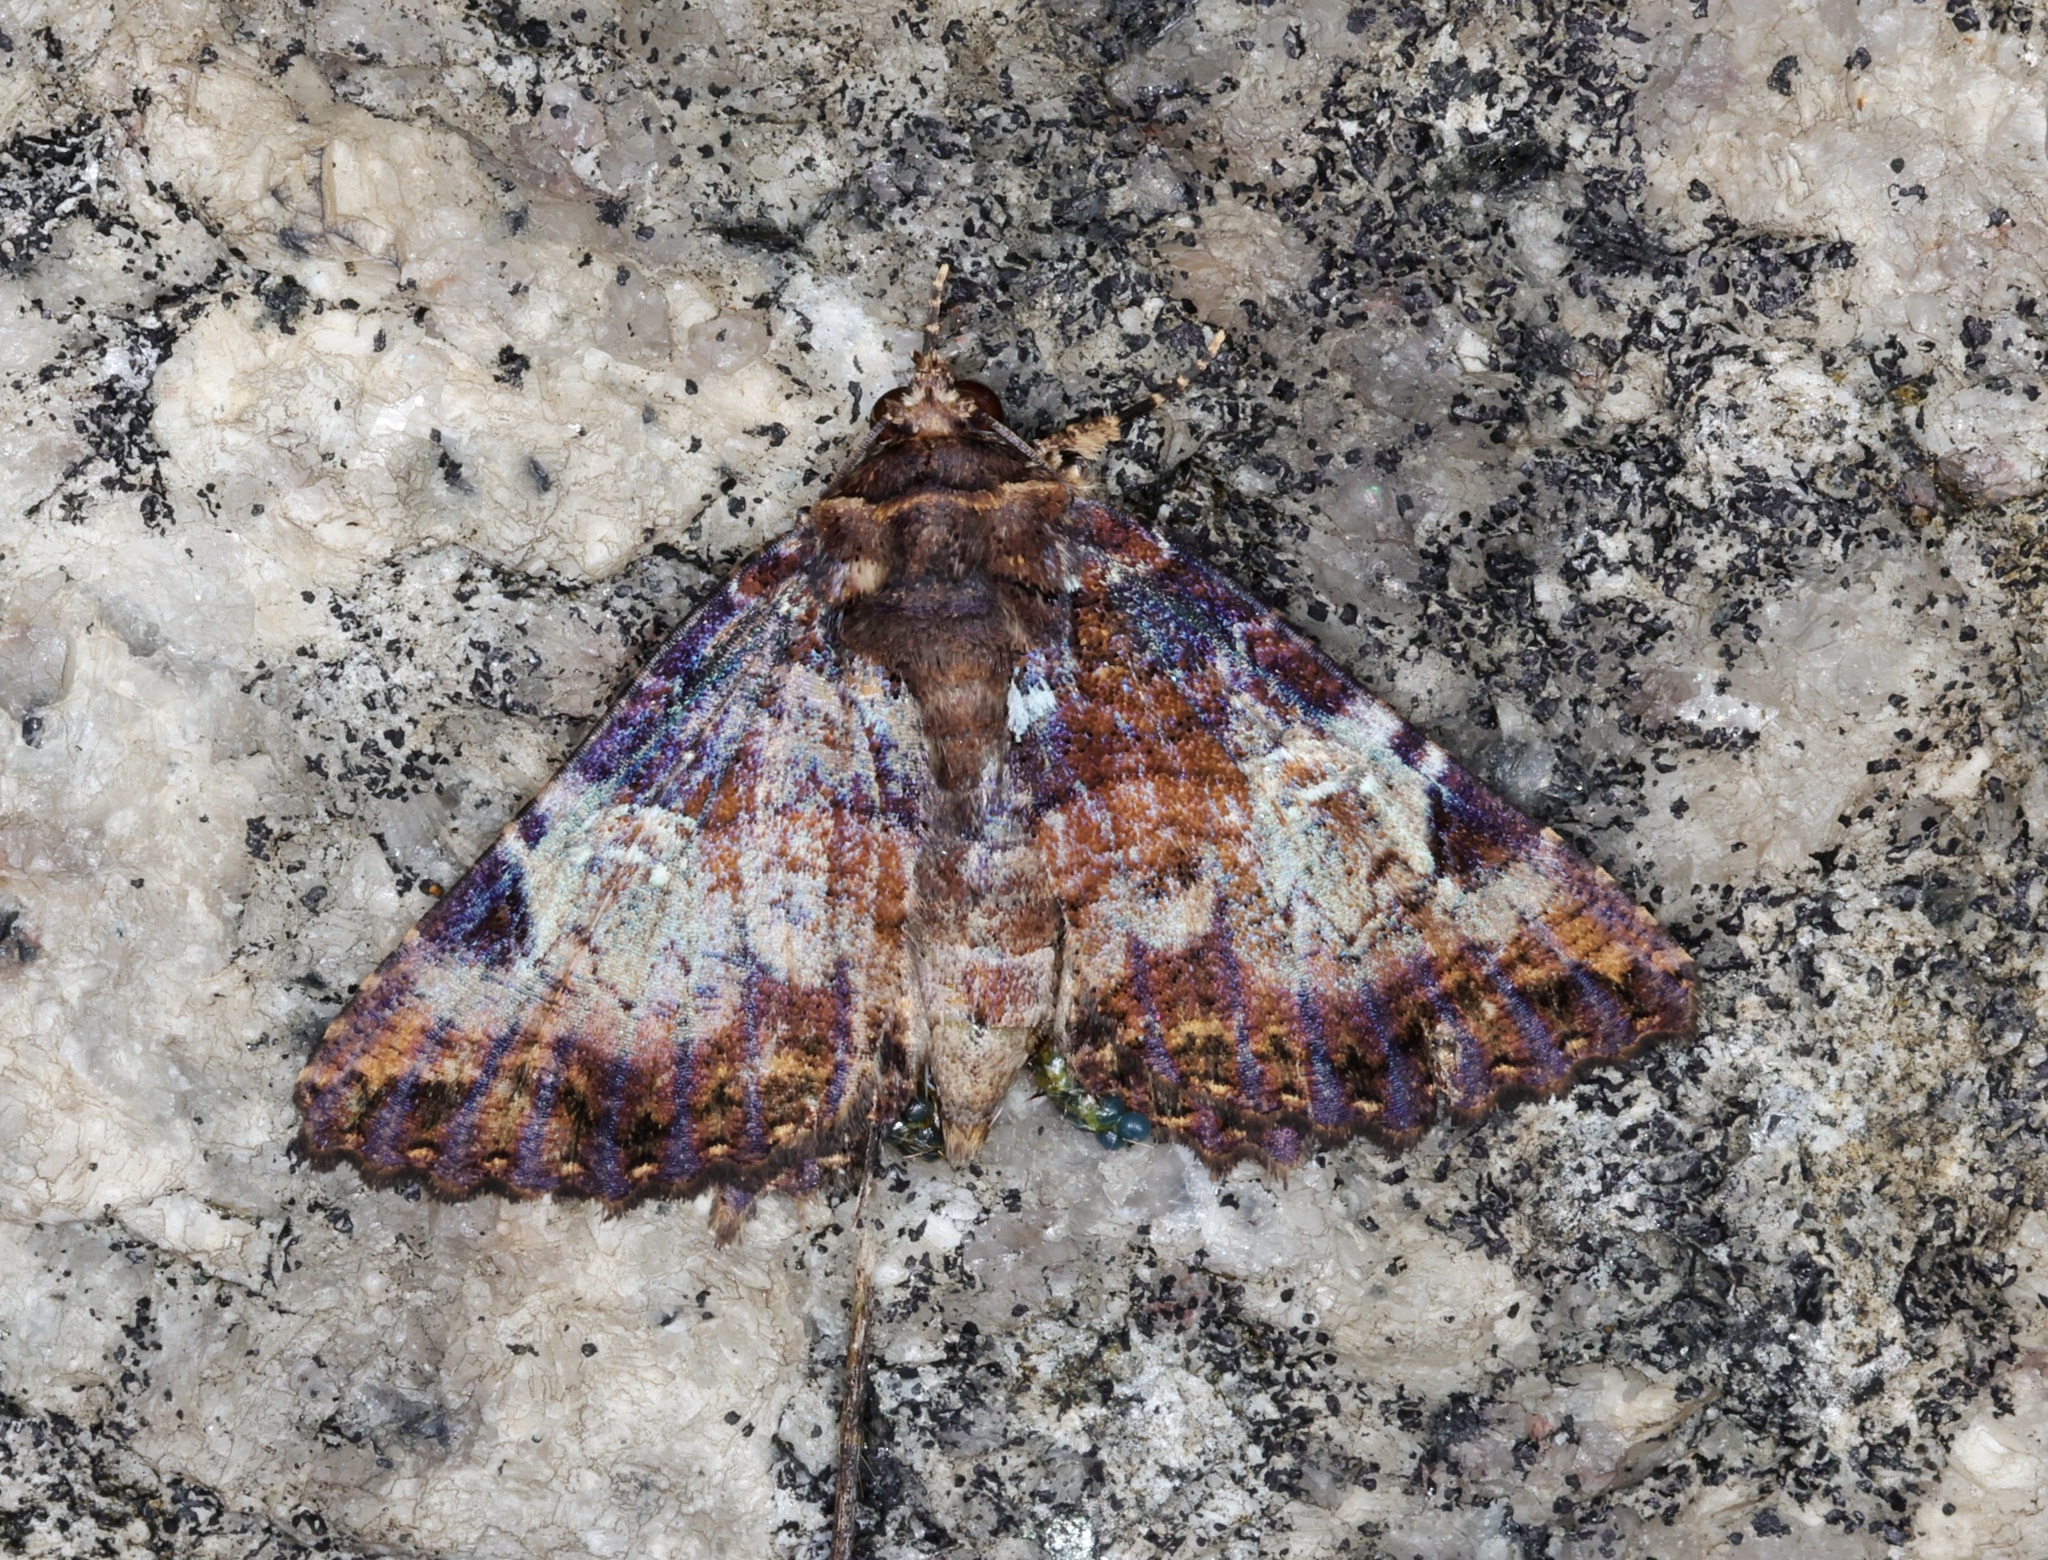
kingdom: Animalia
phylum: Arthropoda
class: Insecta
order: Lepidoptera
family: Erebidae
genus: Daddala
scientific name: Daddala lucilla
